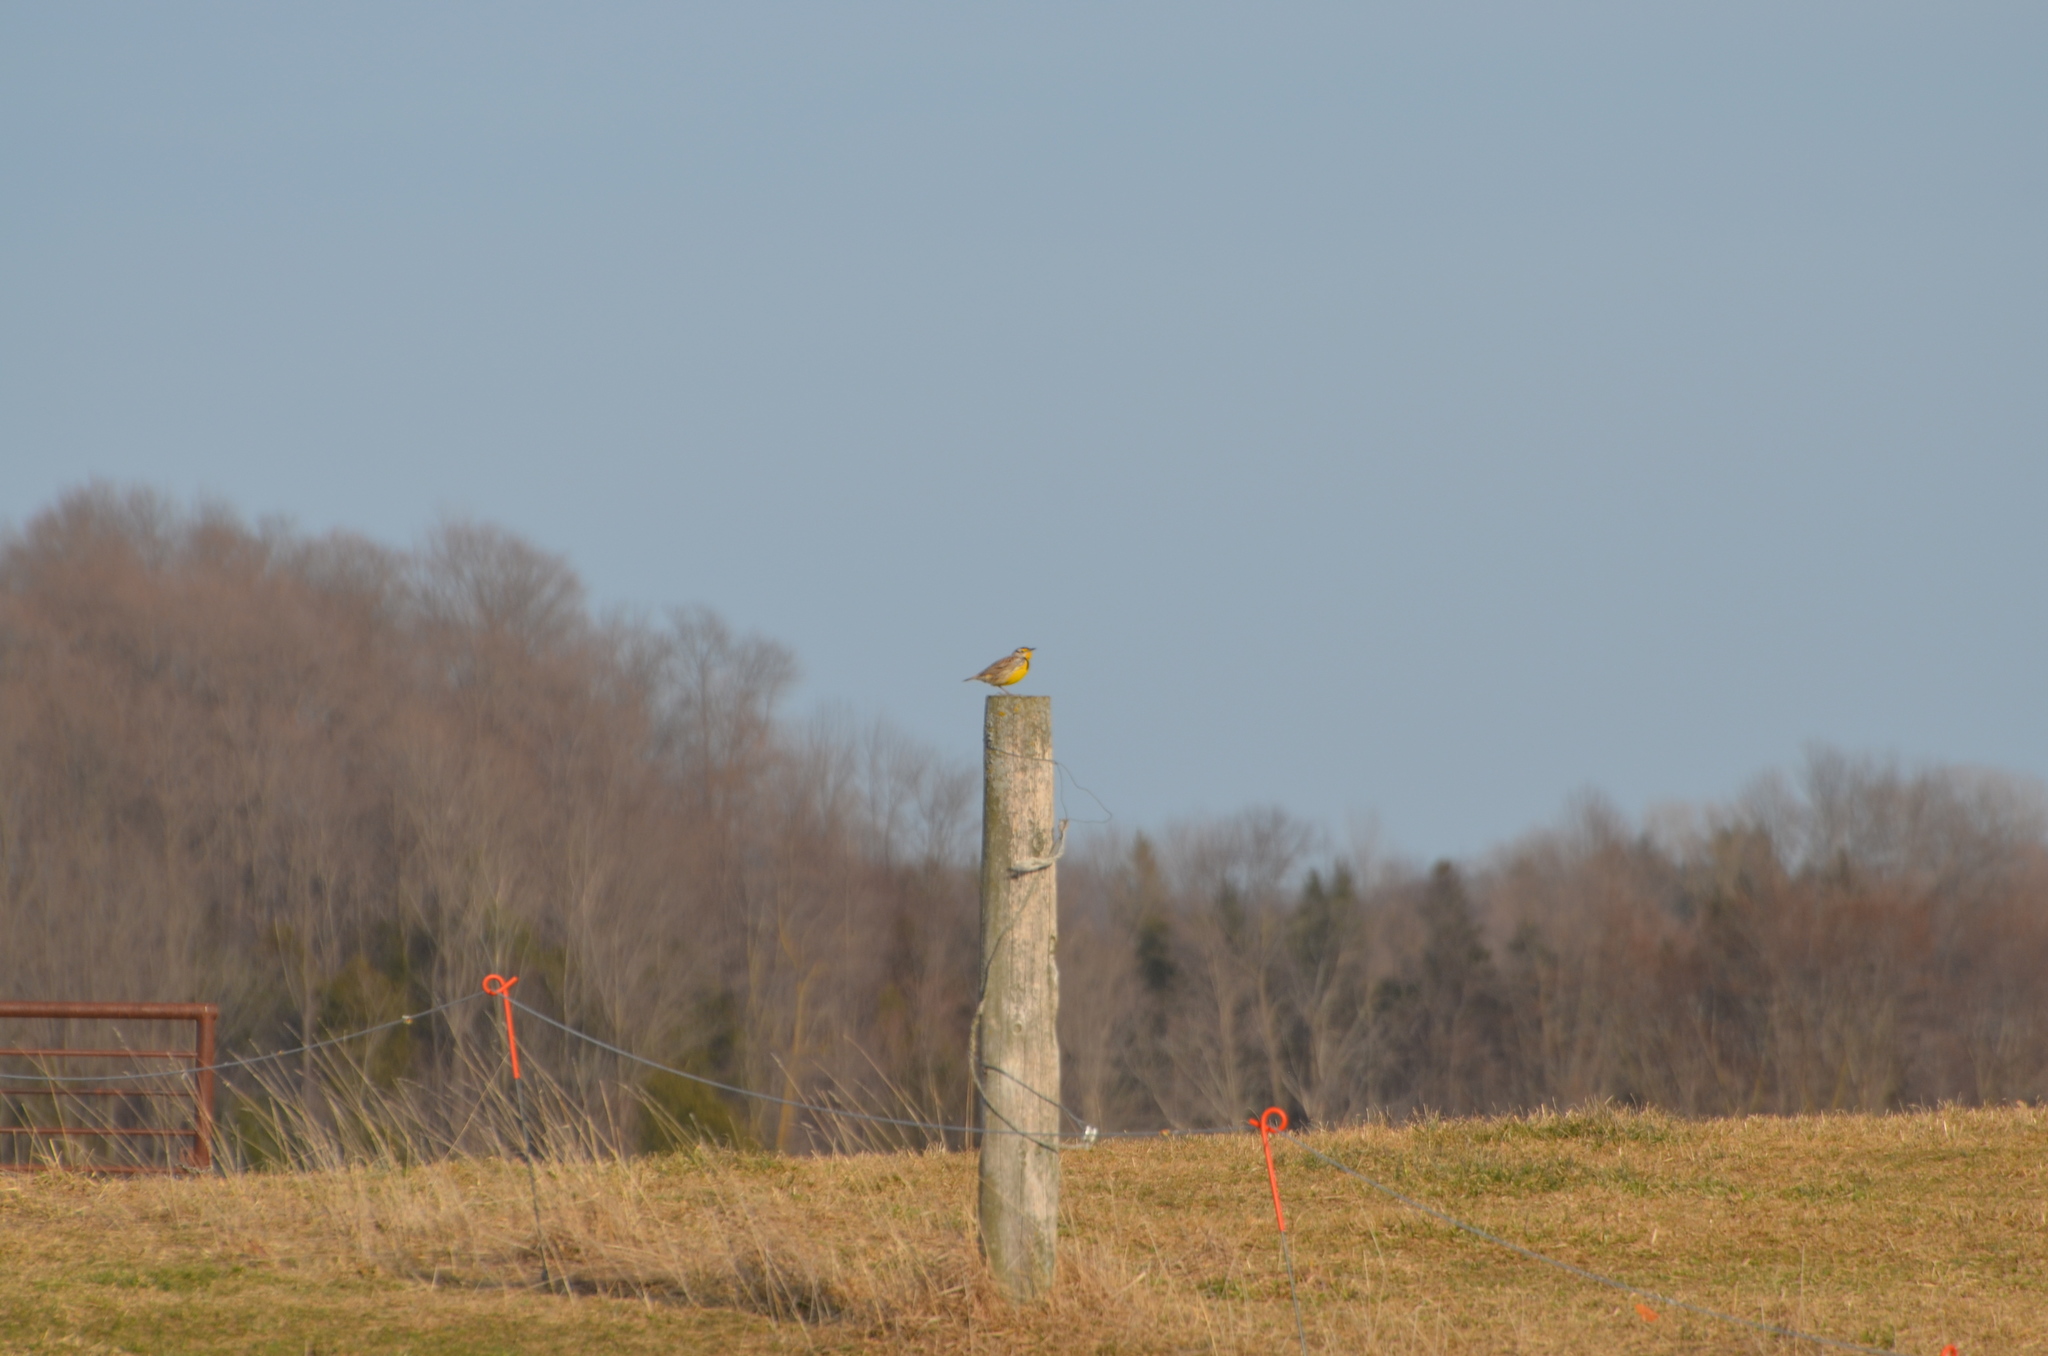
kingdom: Animalia
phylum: Chordata
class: Aves
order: Passeriformes
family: Icteridae
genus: Sturnella
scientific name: Sturnella magna
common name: Eastern meadowlark
